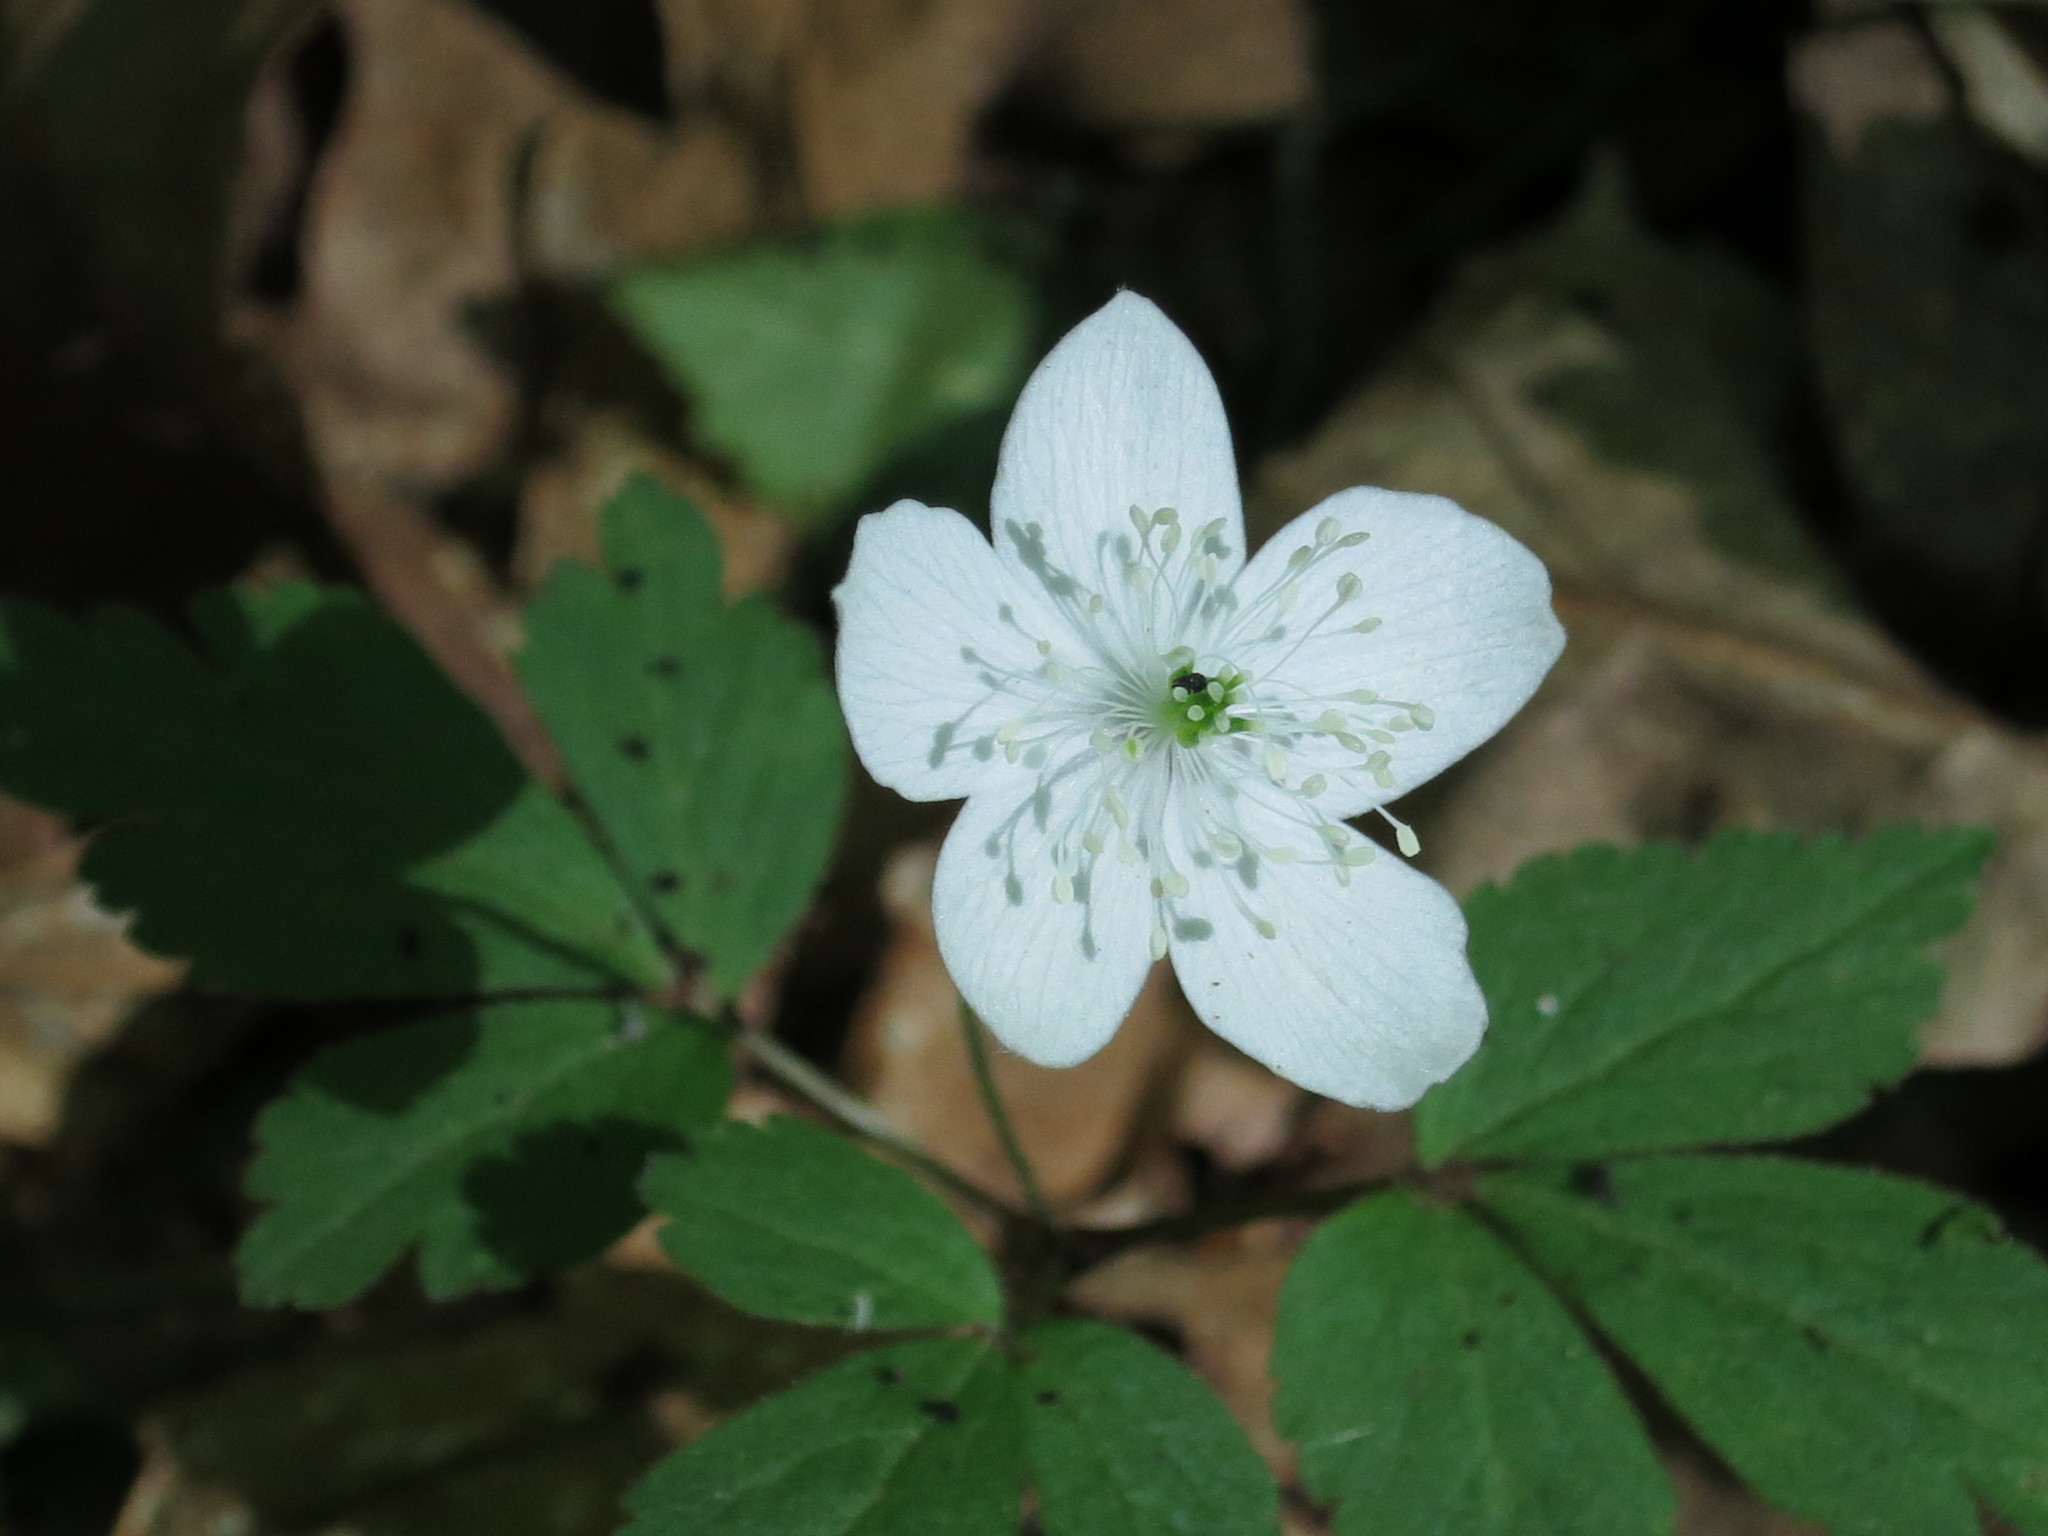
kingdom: Plantae
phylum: Tracheophyta
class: Magnoliopsida
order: Ranunculales
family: Ranunculaceae
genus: Anemone
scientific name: Anemone udensis
